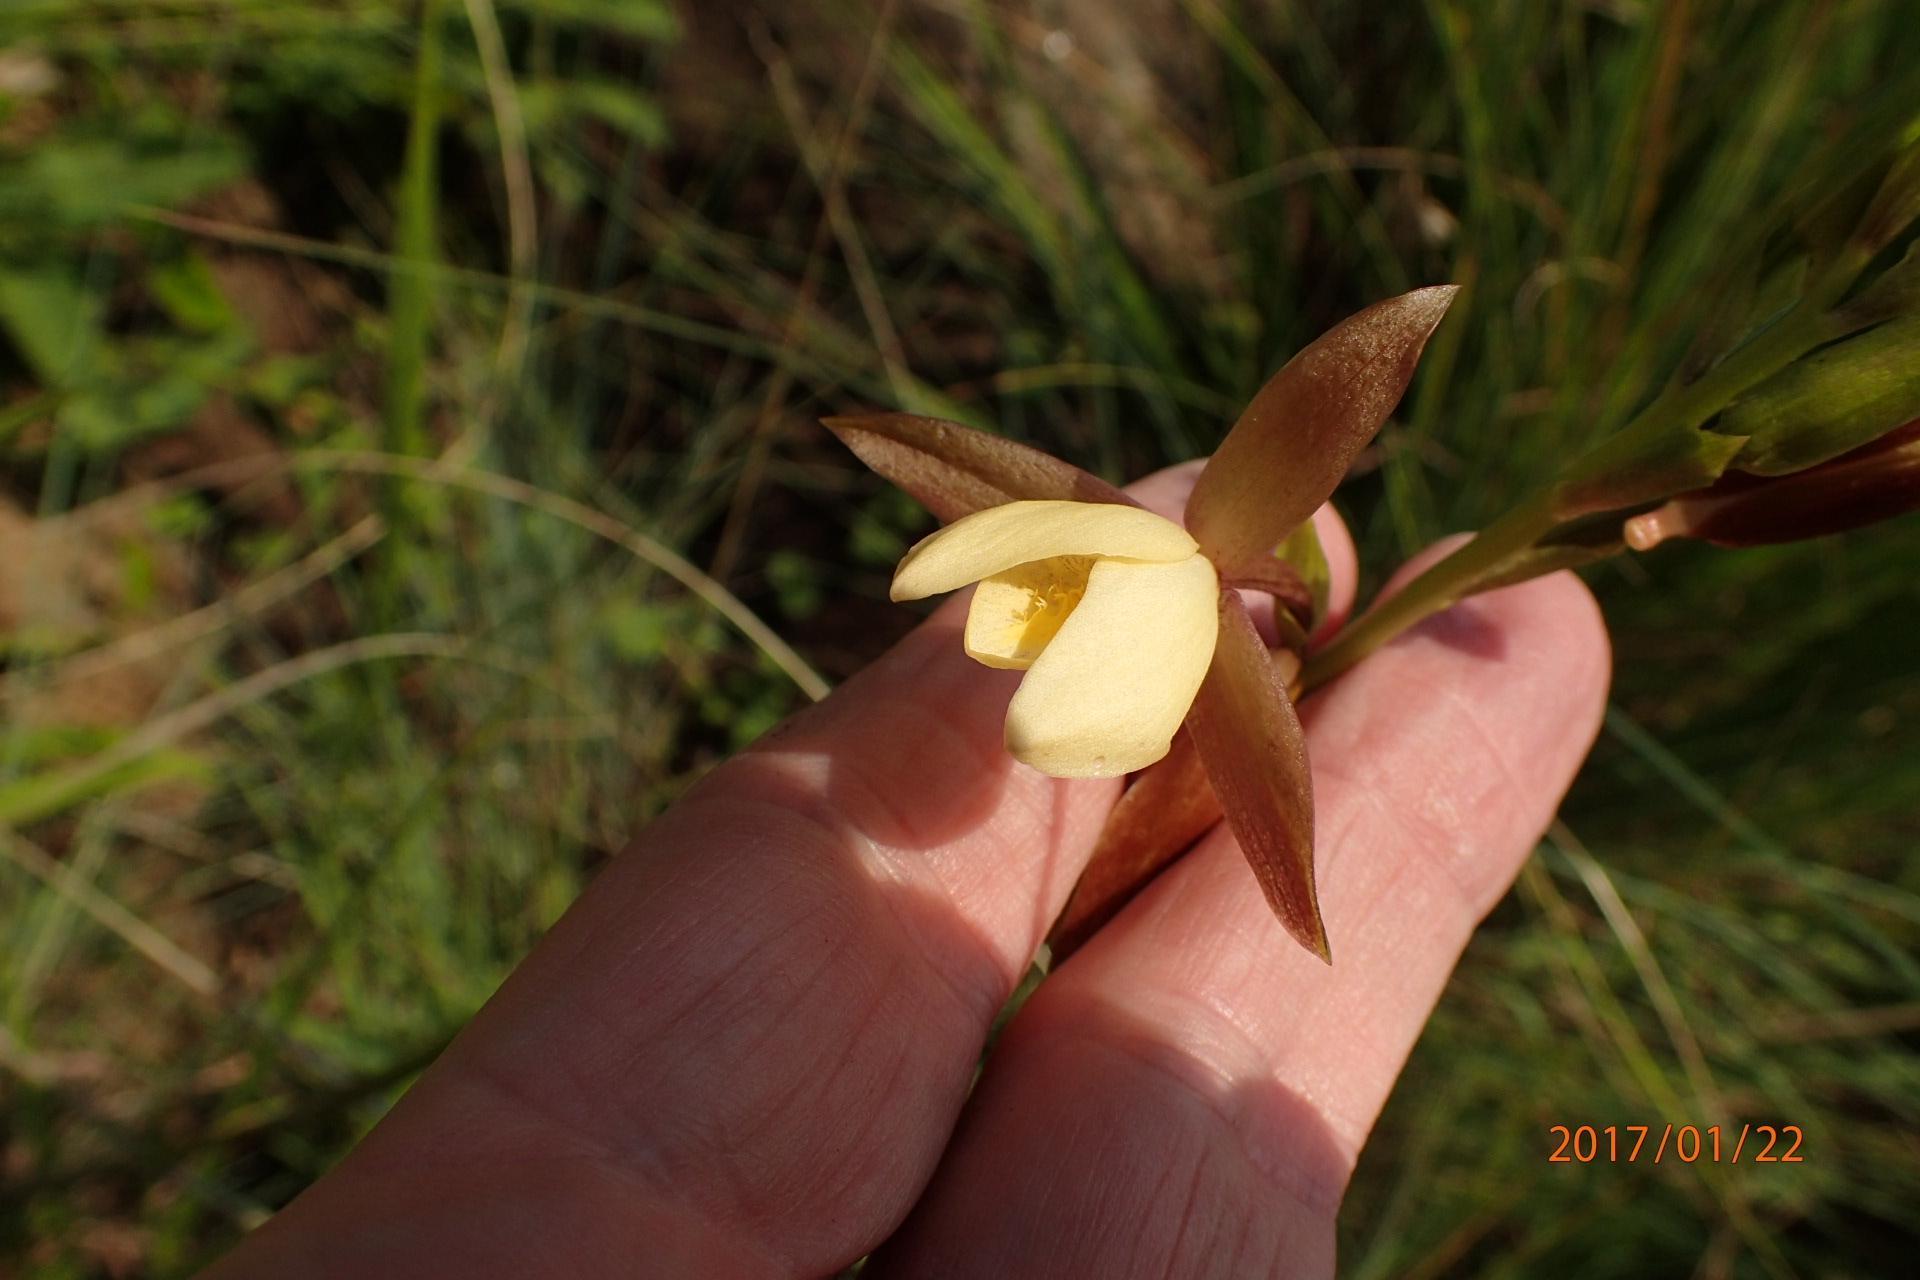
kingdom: Plantae
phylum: Tracheophyta
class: Liliopsida
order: Asparagales
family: Orchidaceae
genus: Eulophia
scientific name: Eulophia ovalis
